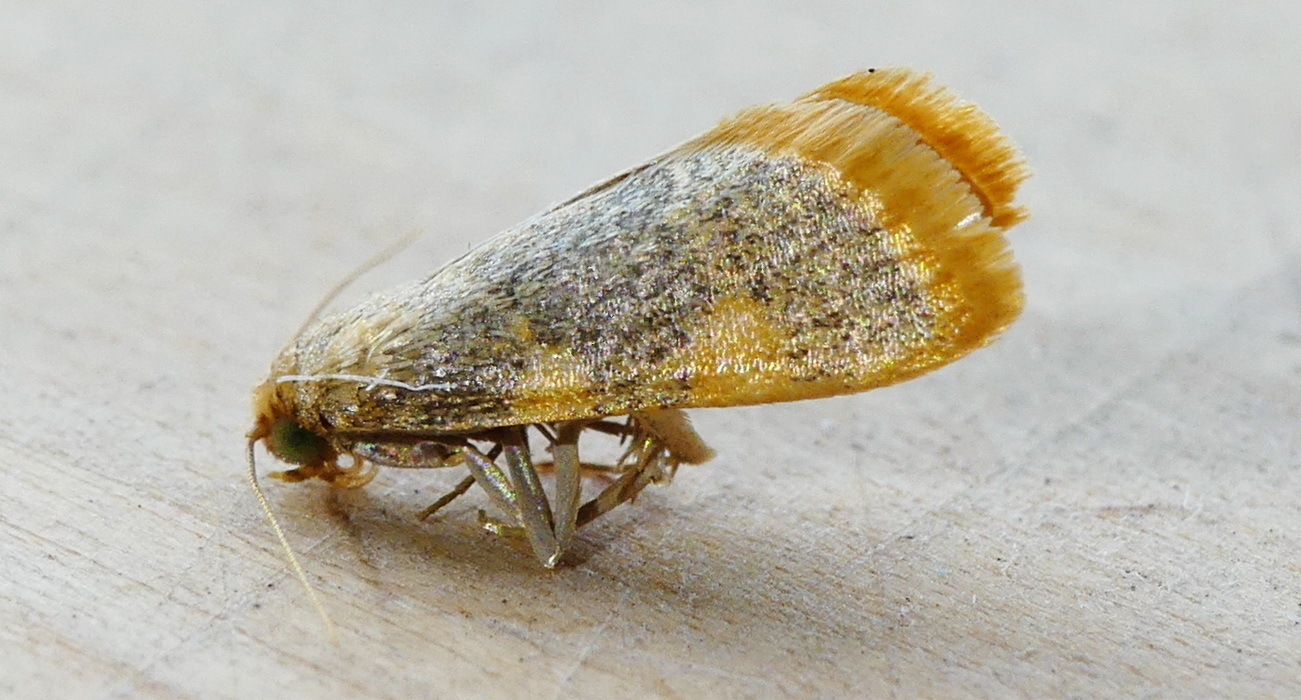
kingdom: Animalia
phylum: Arthropoda
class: Insecta
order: Lepidoptera
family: Pyralidae
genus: Hypsopygia
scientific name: Hypsopygia costalis
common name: Gold triangle
